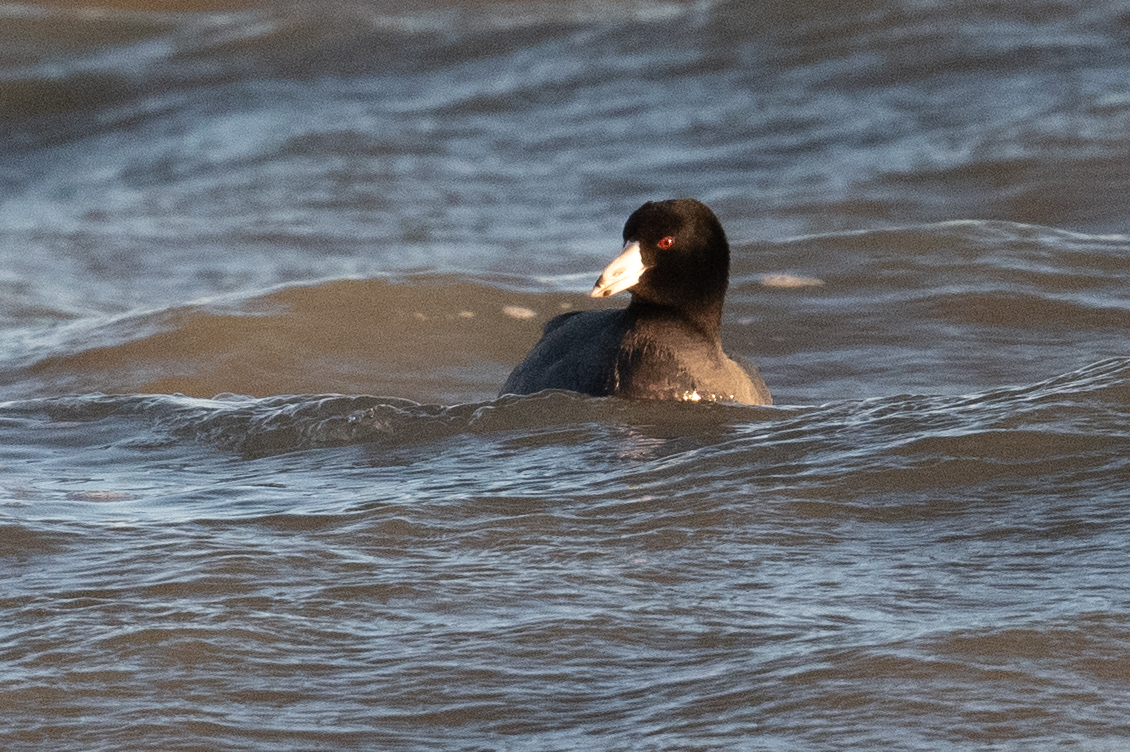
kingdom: Animalia
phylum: Chordata
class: Aves
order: Gruiformes
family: Rallidae
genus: Fulica
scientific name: Fulica americana
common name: American coot
